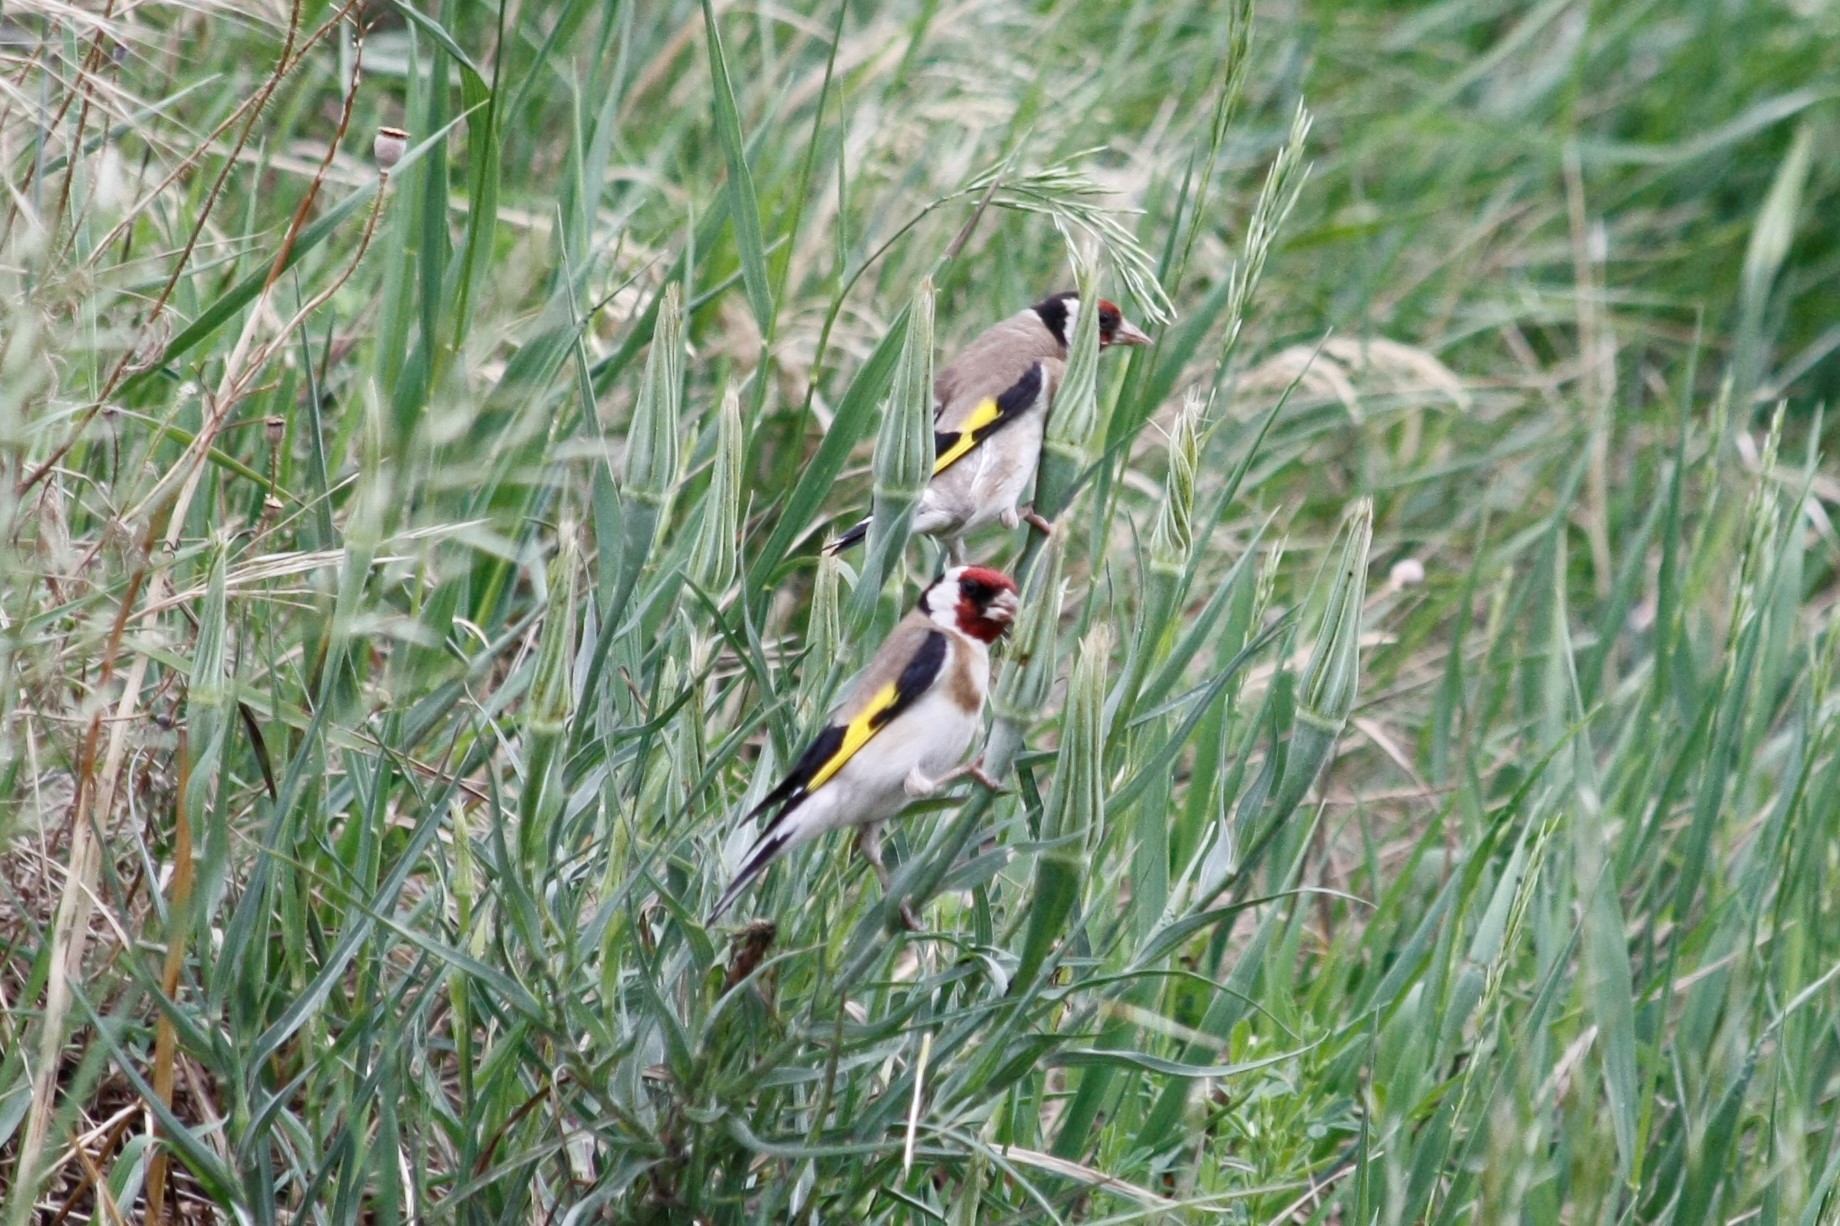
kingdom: Animalia
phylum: Chordata
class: Aves
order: Passeriformes
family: Fringillidae
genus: Carduelis
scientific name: Carduelis carduelis
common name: European goldfinch
